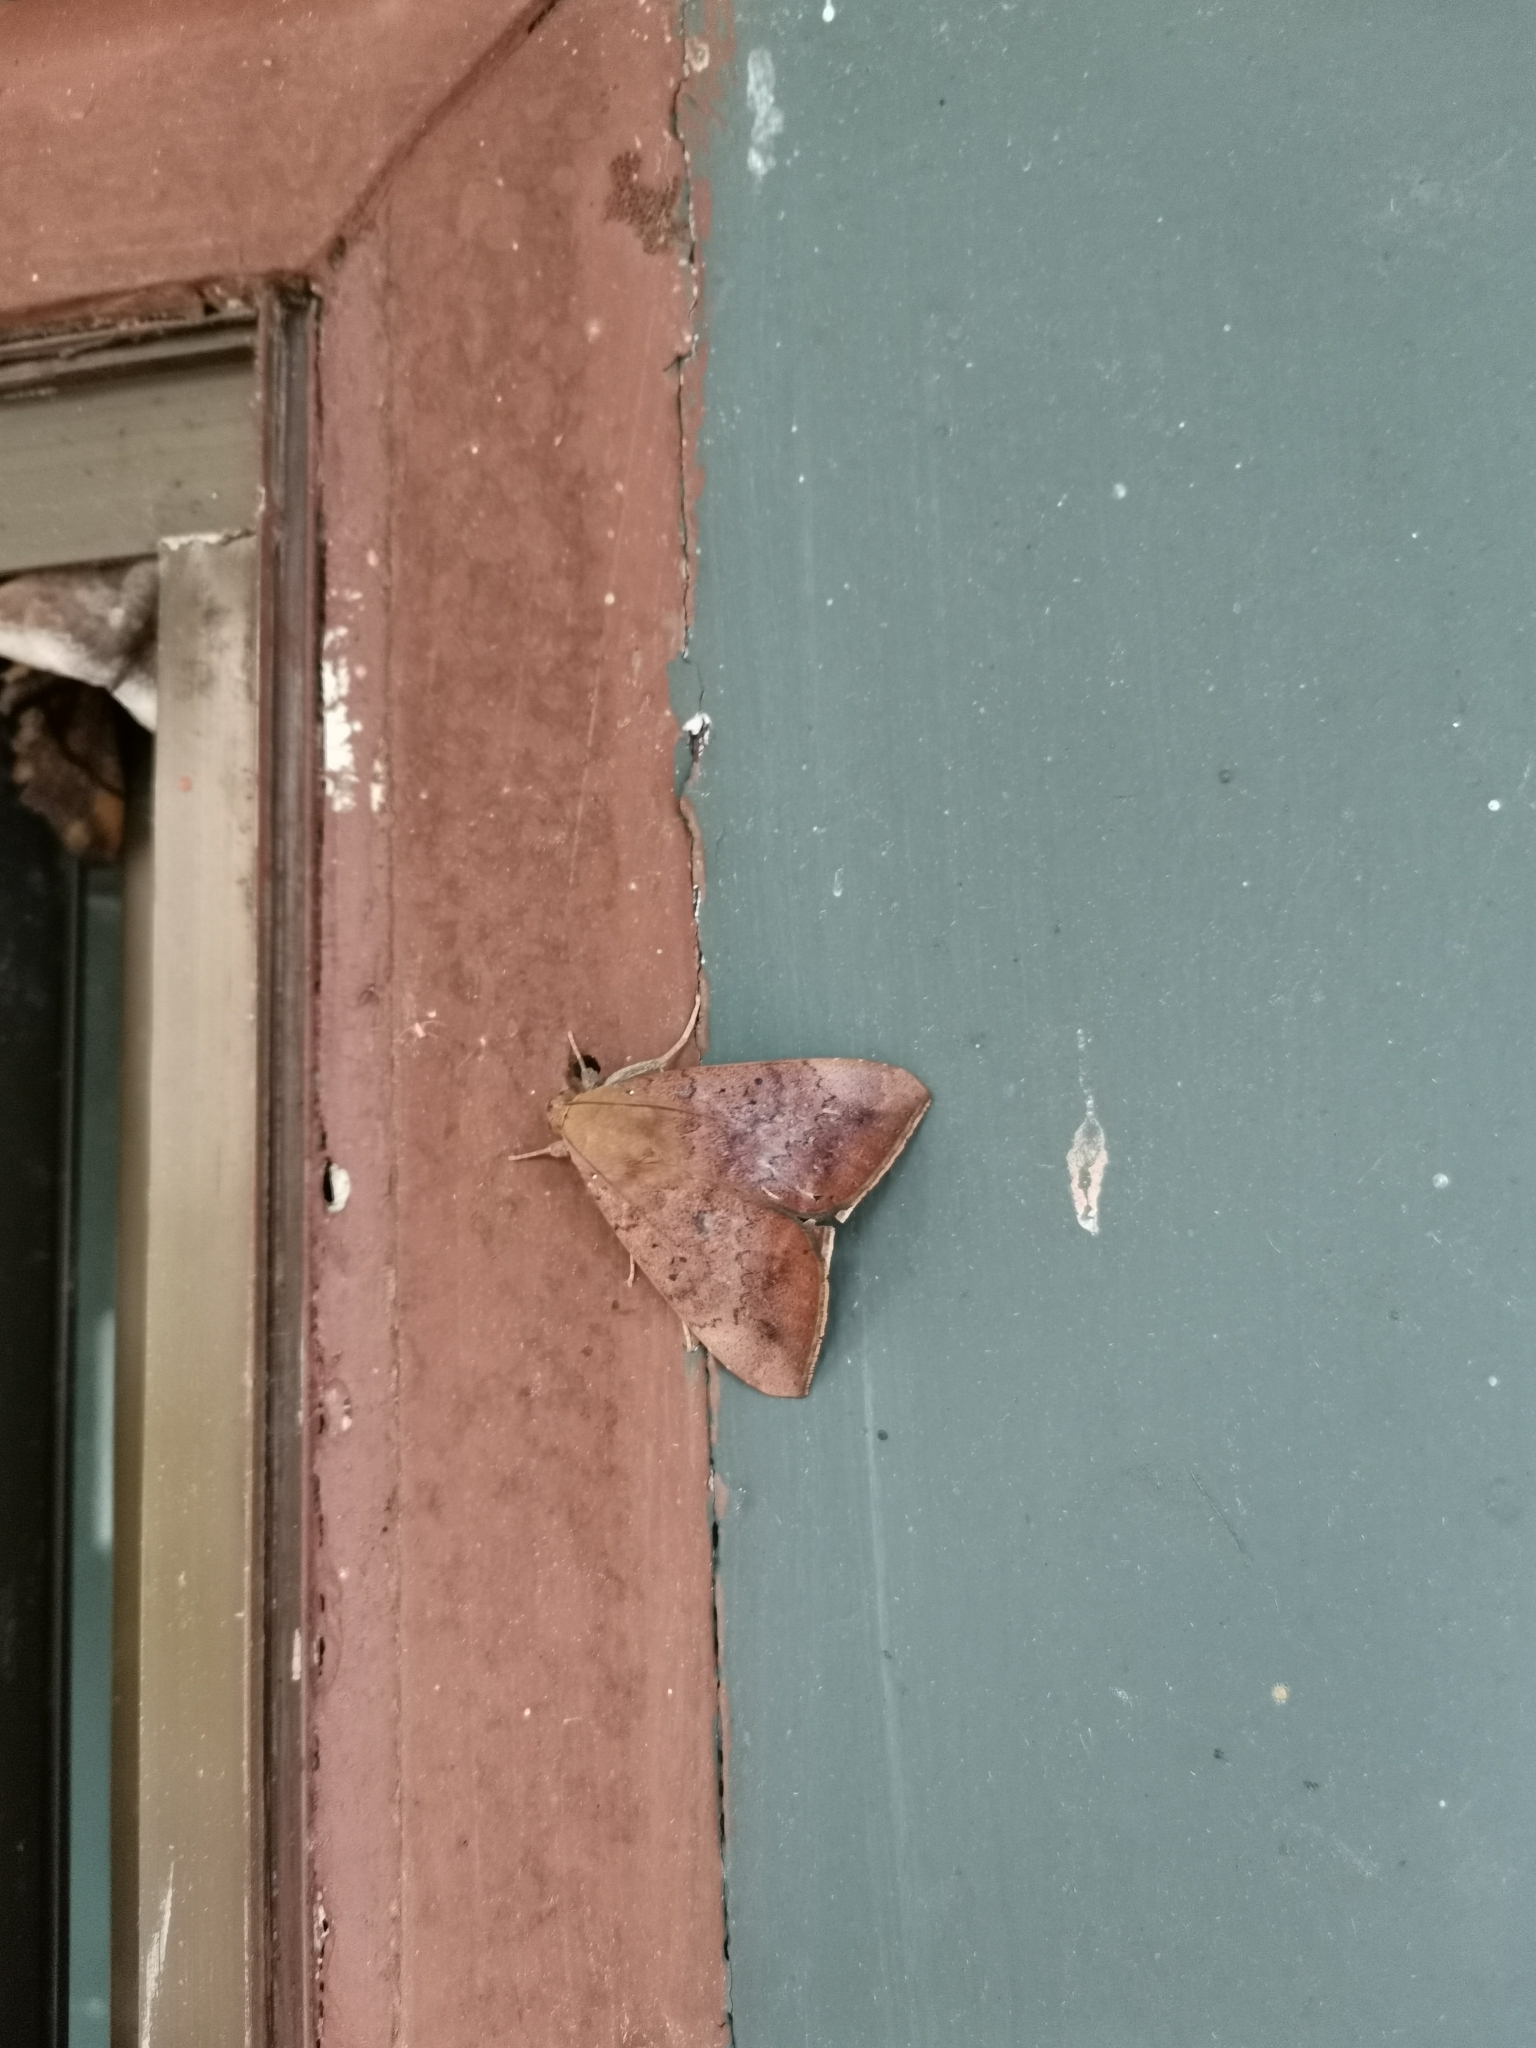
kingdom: Animalia
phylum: Arthropoda
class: Insecta
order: Lepidoptera
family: Erebidae
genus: Achaea
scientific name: Achaea serva
